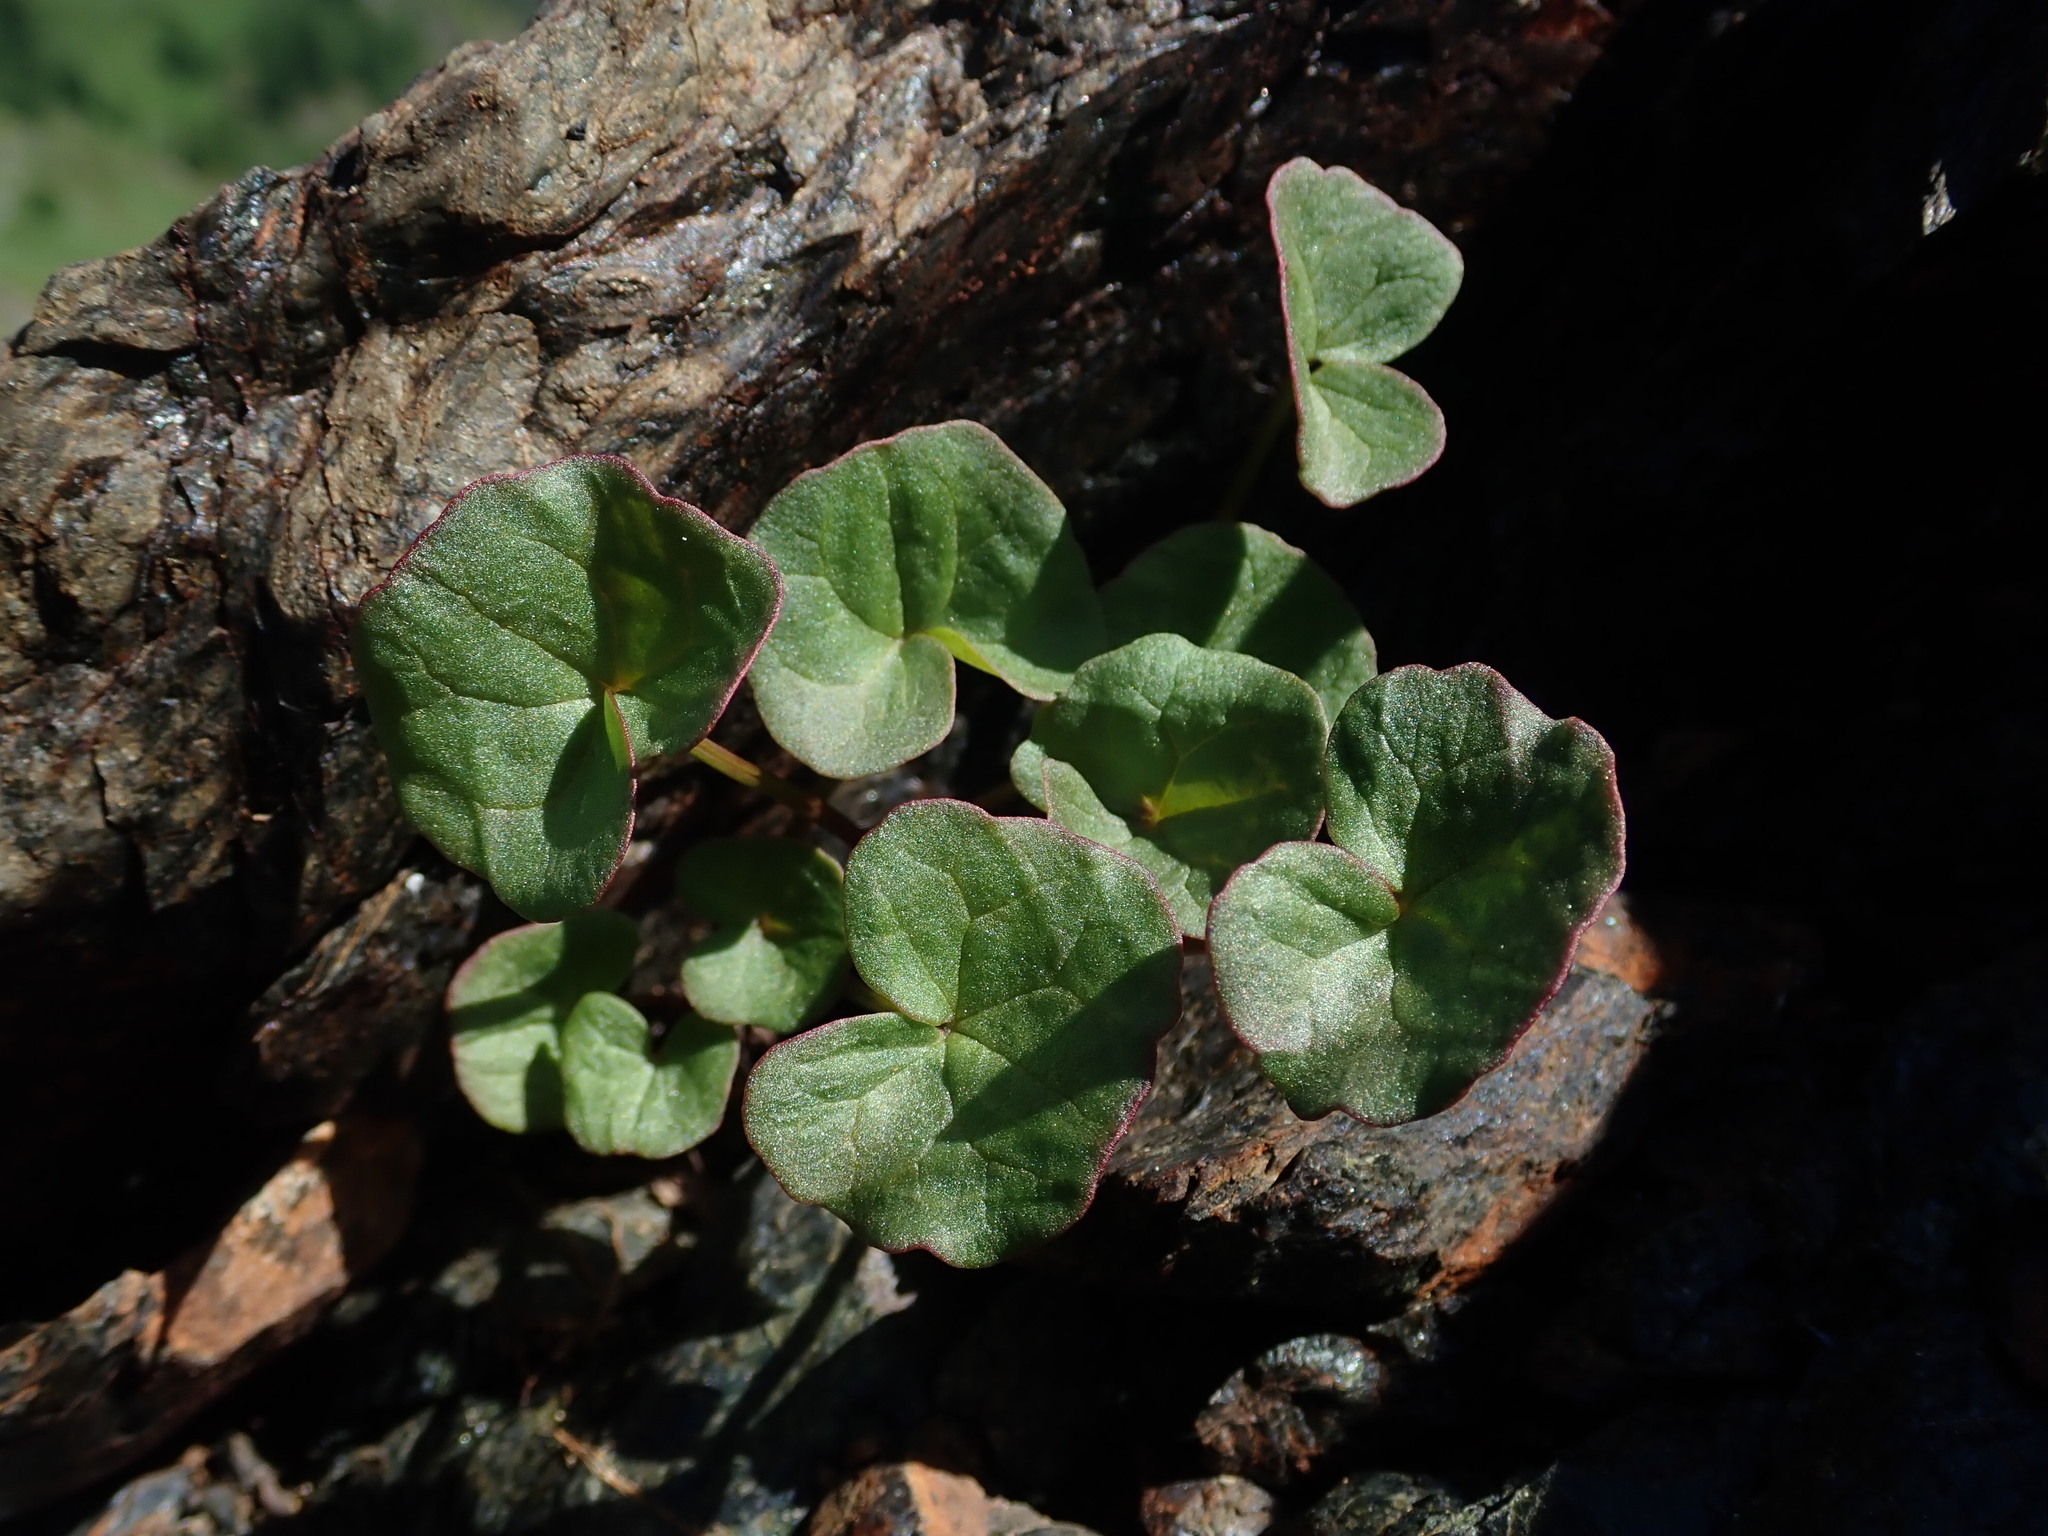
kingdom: Plantae
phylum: Tracheophyta
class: Magnoliopsida
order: Caryophyllales
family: Polygonaceae
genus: Oxyria
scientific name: Oxyria digyna
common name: Alpine mountain-sorrel
